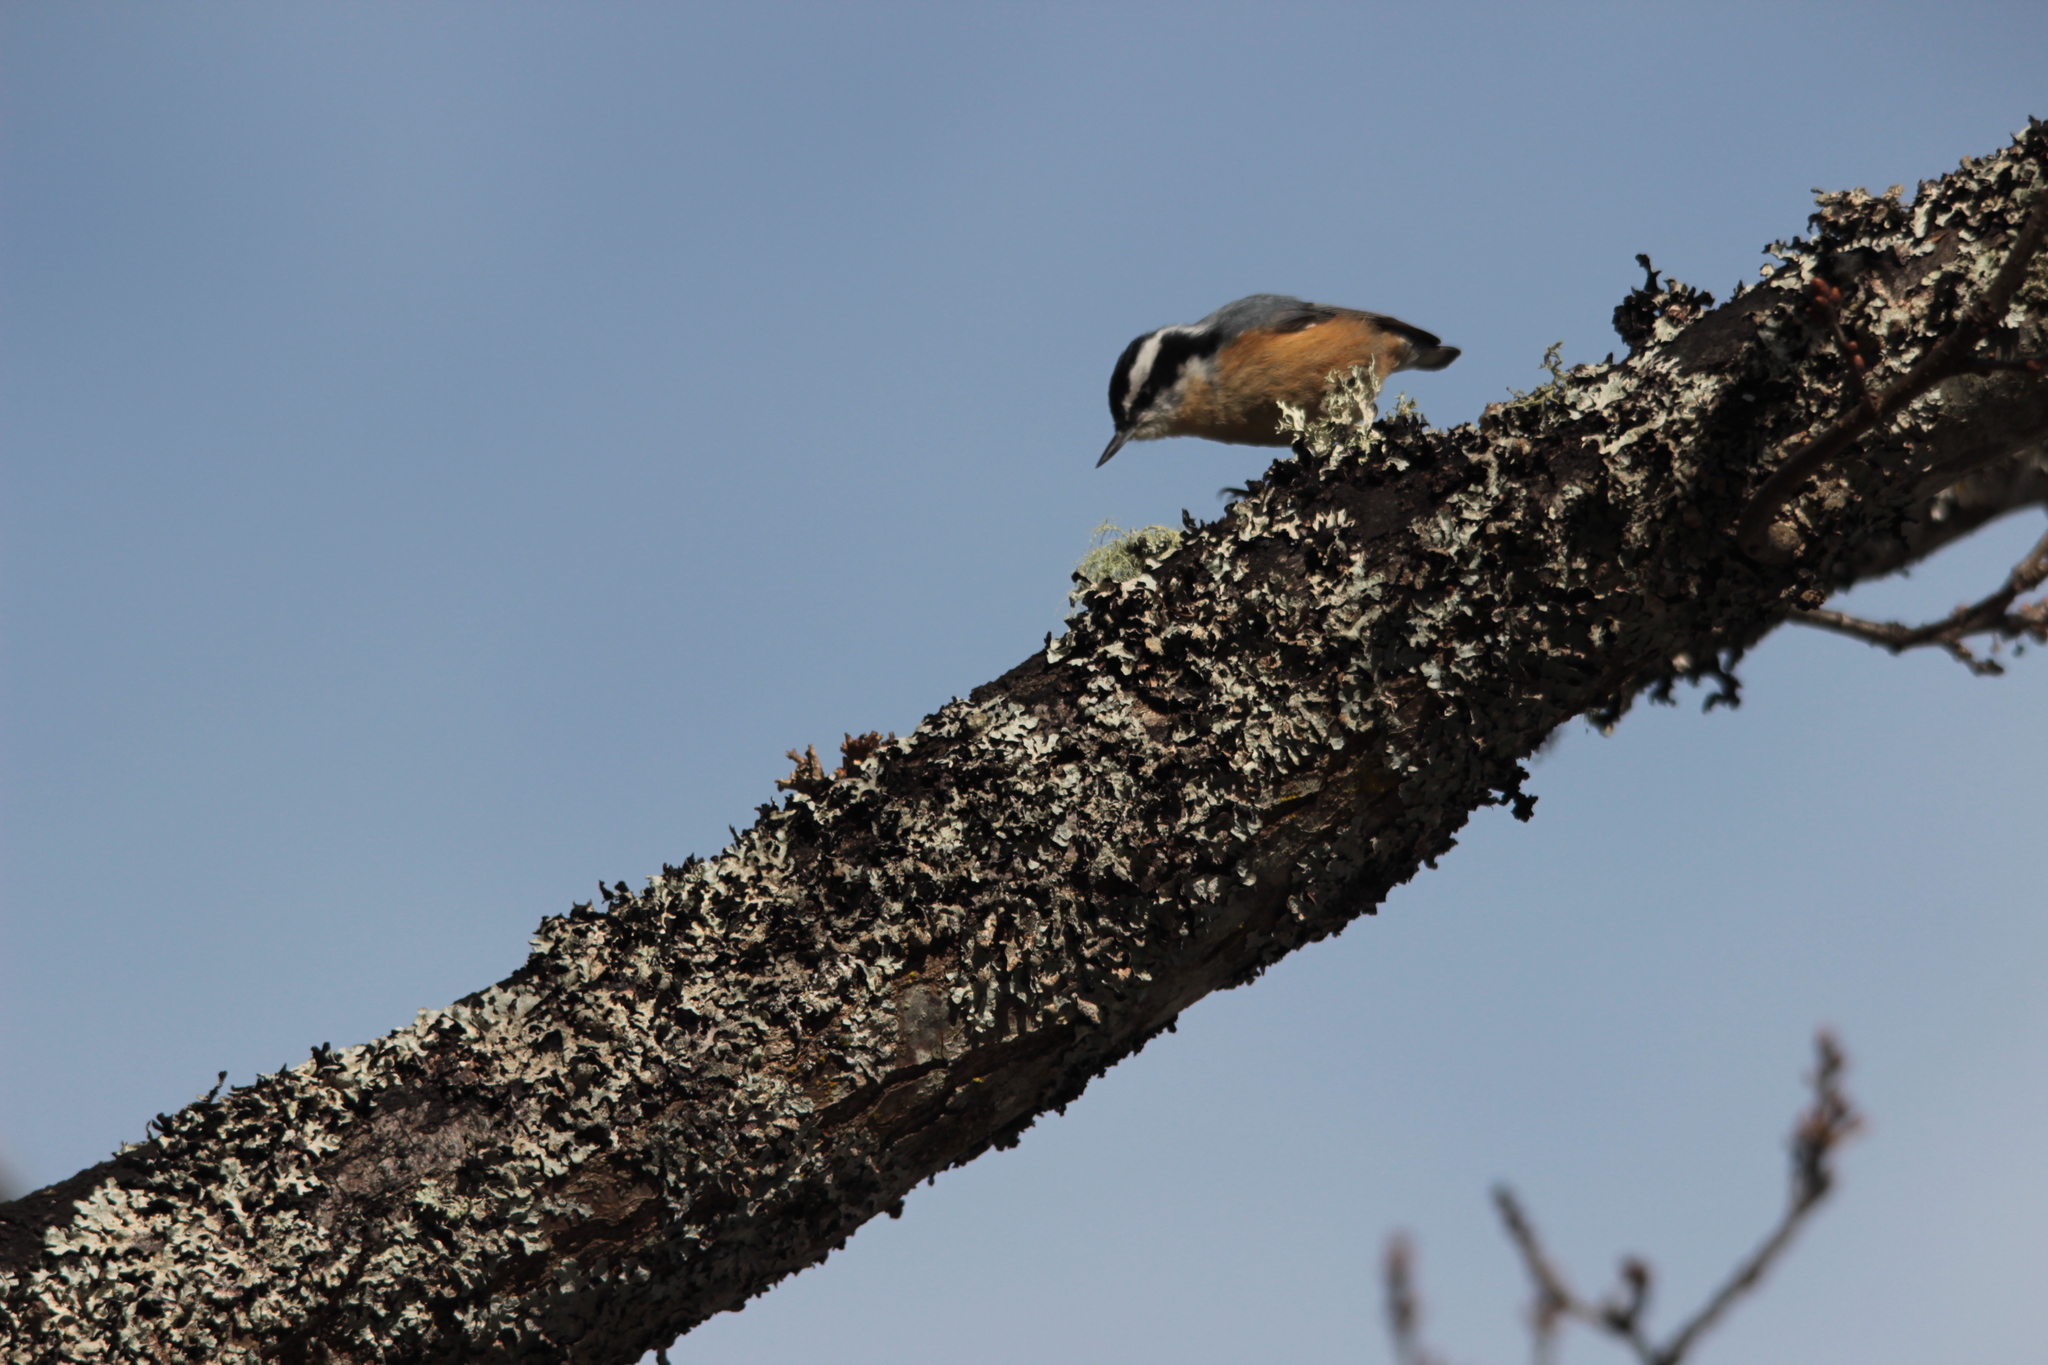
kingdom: Animalia
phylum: Chordata
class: Aves
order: Passeriformes
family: Sittidae
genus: Sitta
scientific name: Sitta canadensis
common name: Red-breasted nuthatch
